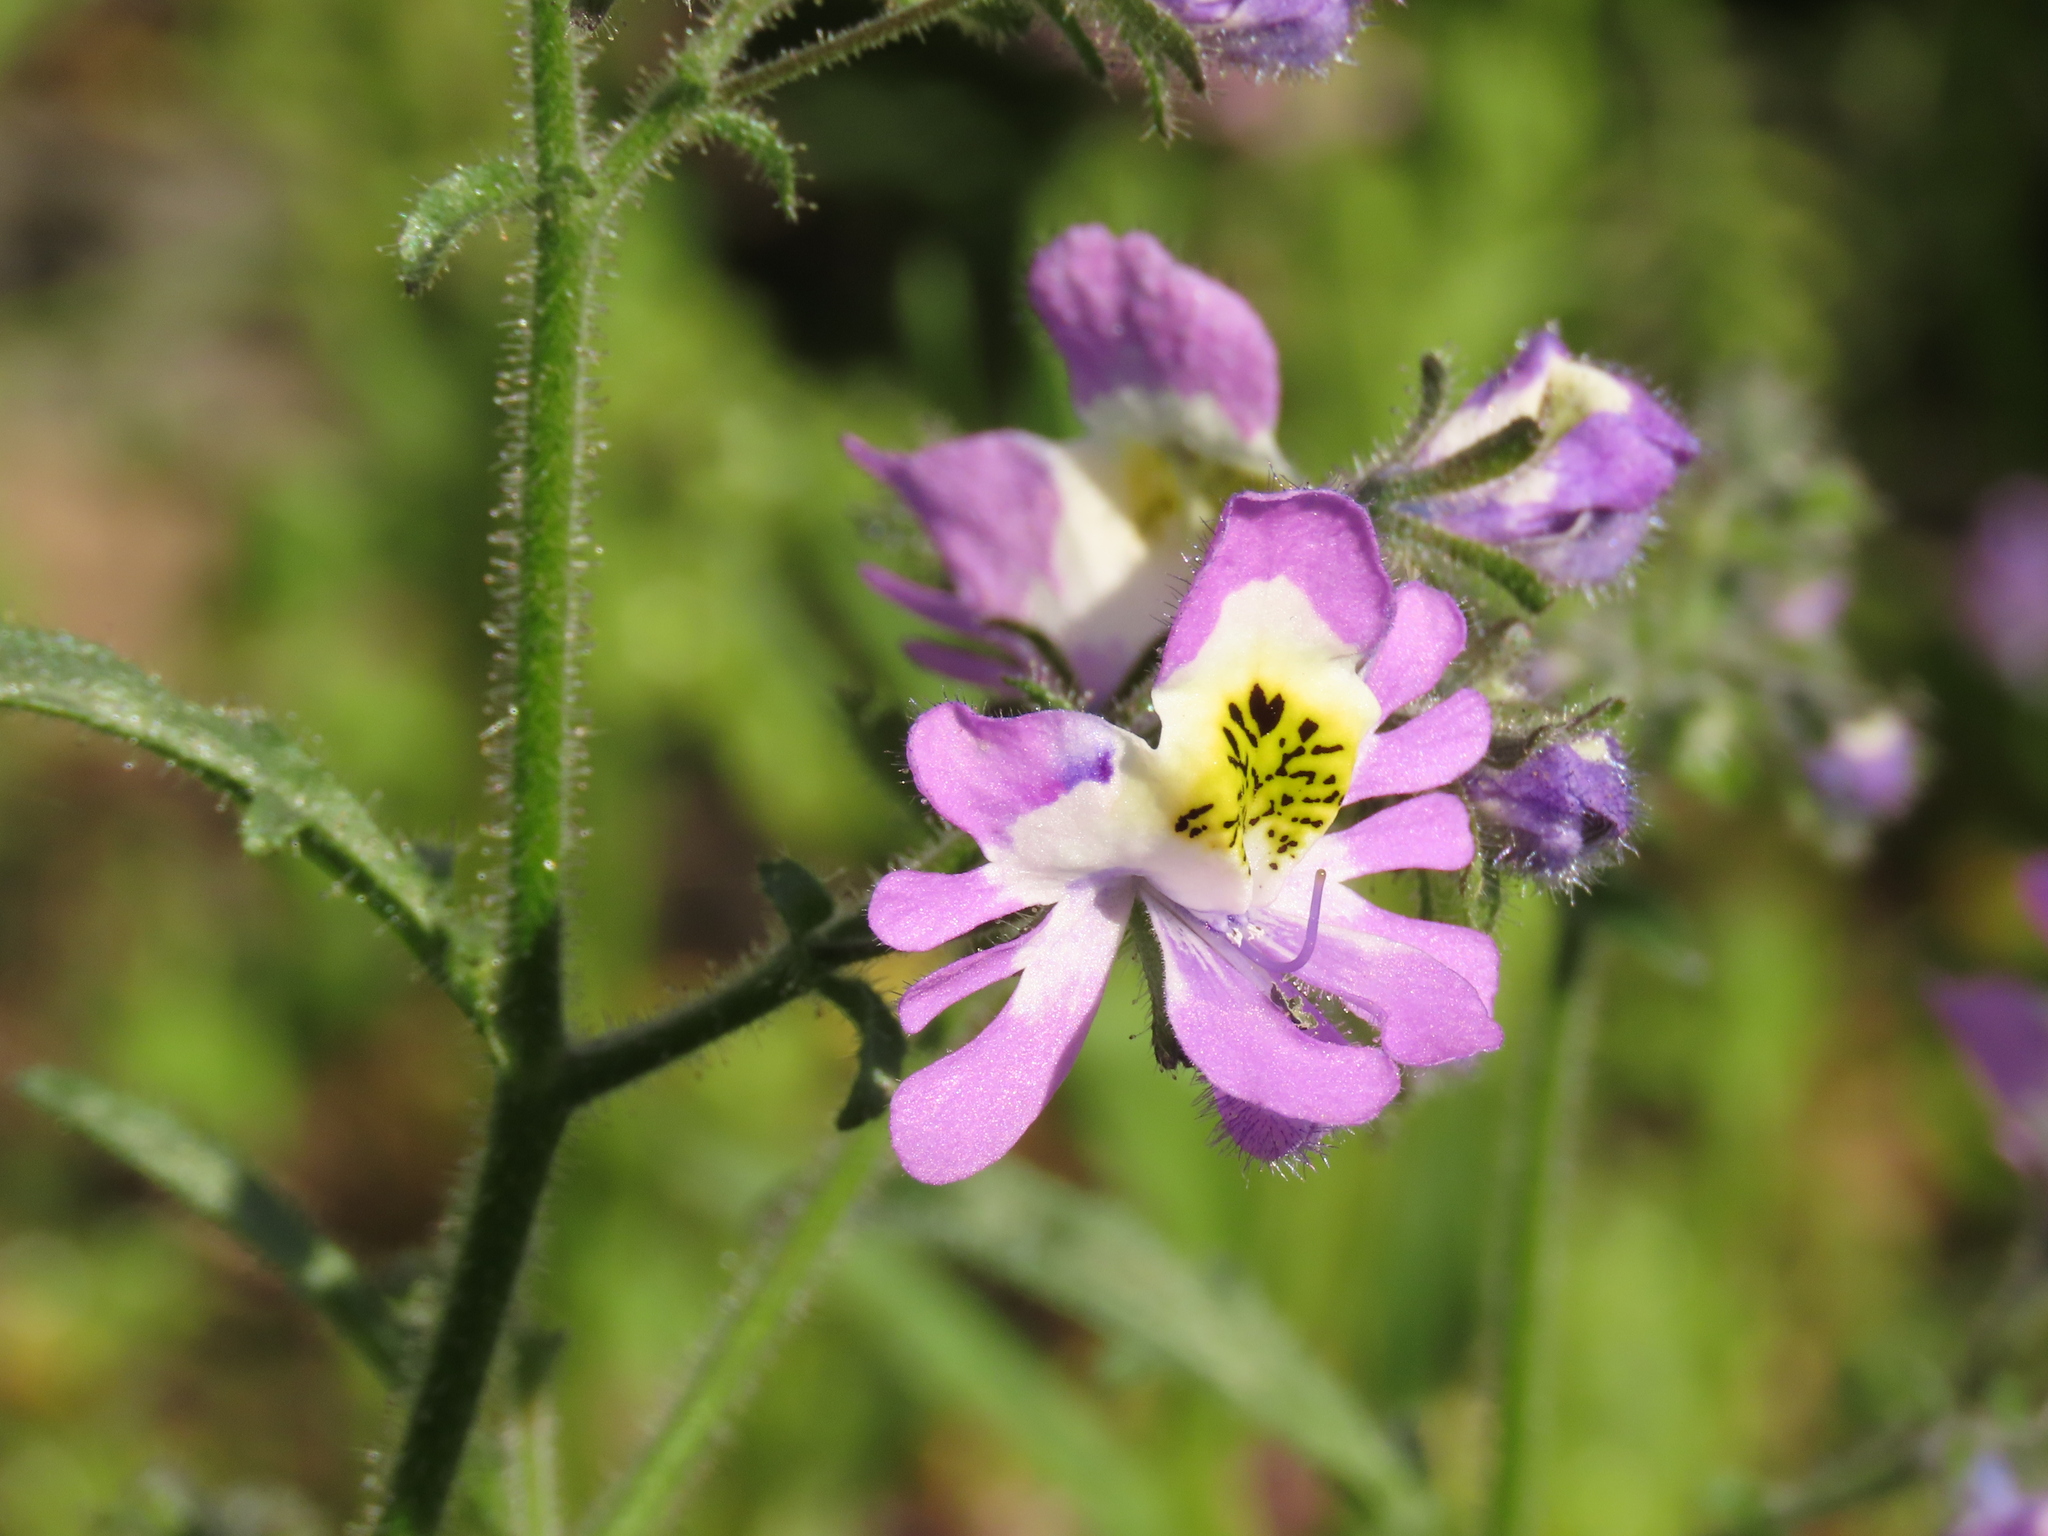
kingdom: Plantae
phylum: Tracheophyta
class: Magnoliopsida
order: Solanales
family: Solanaceae
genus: Schizanthus
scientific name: Schizanthus porrigens
